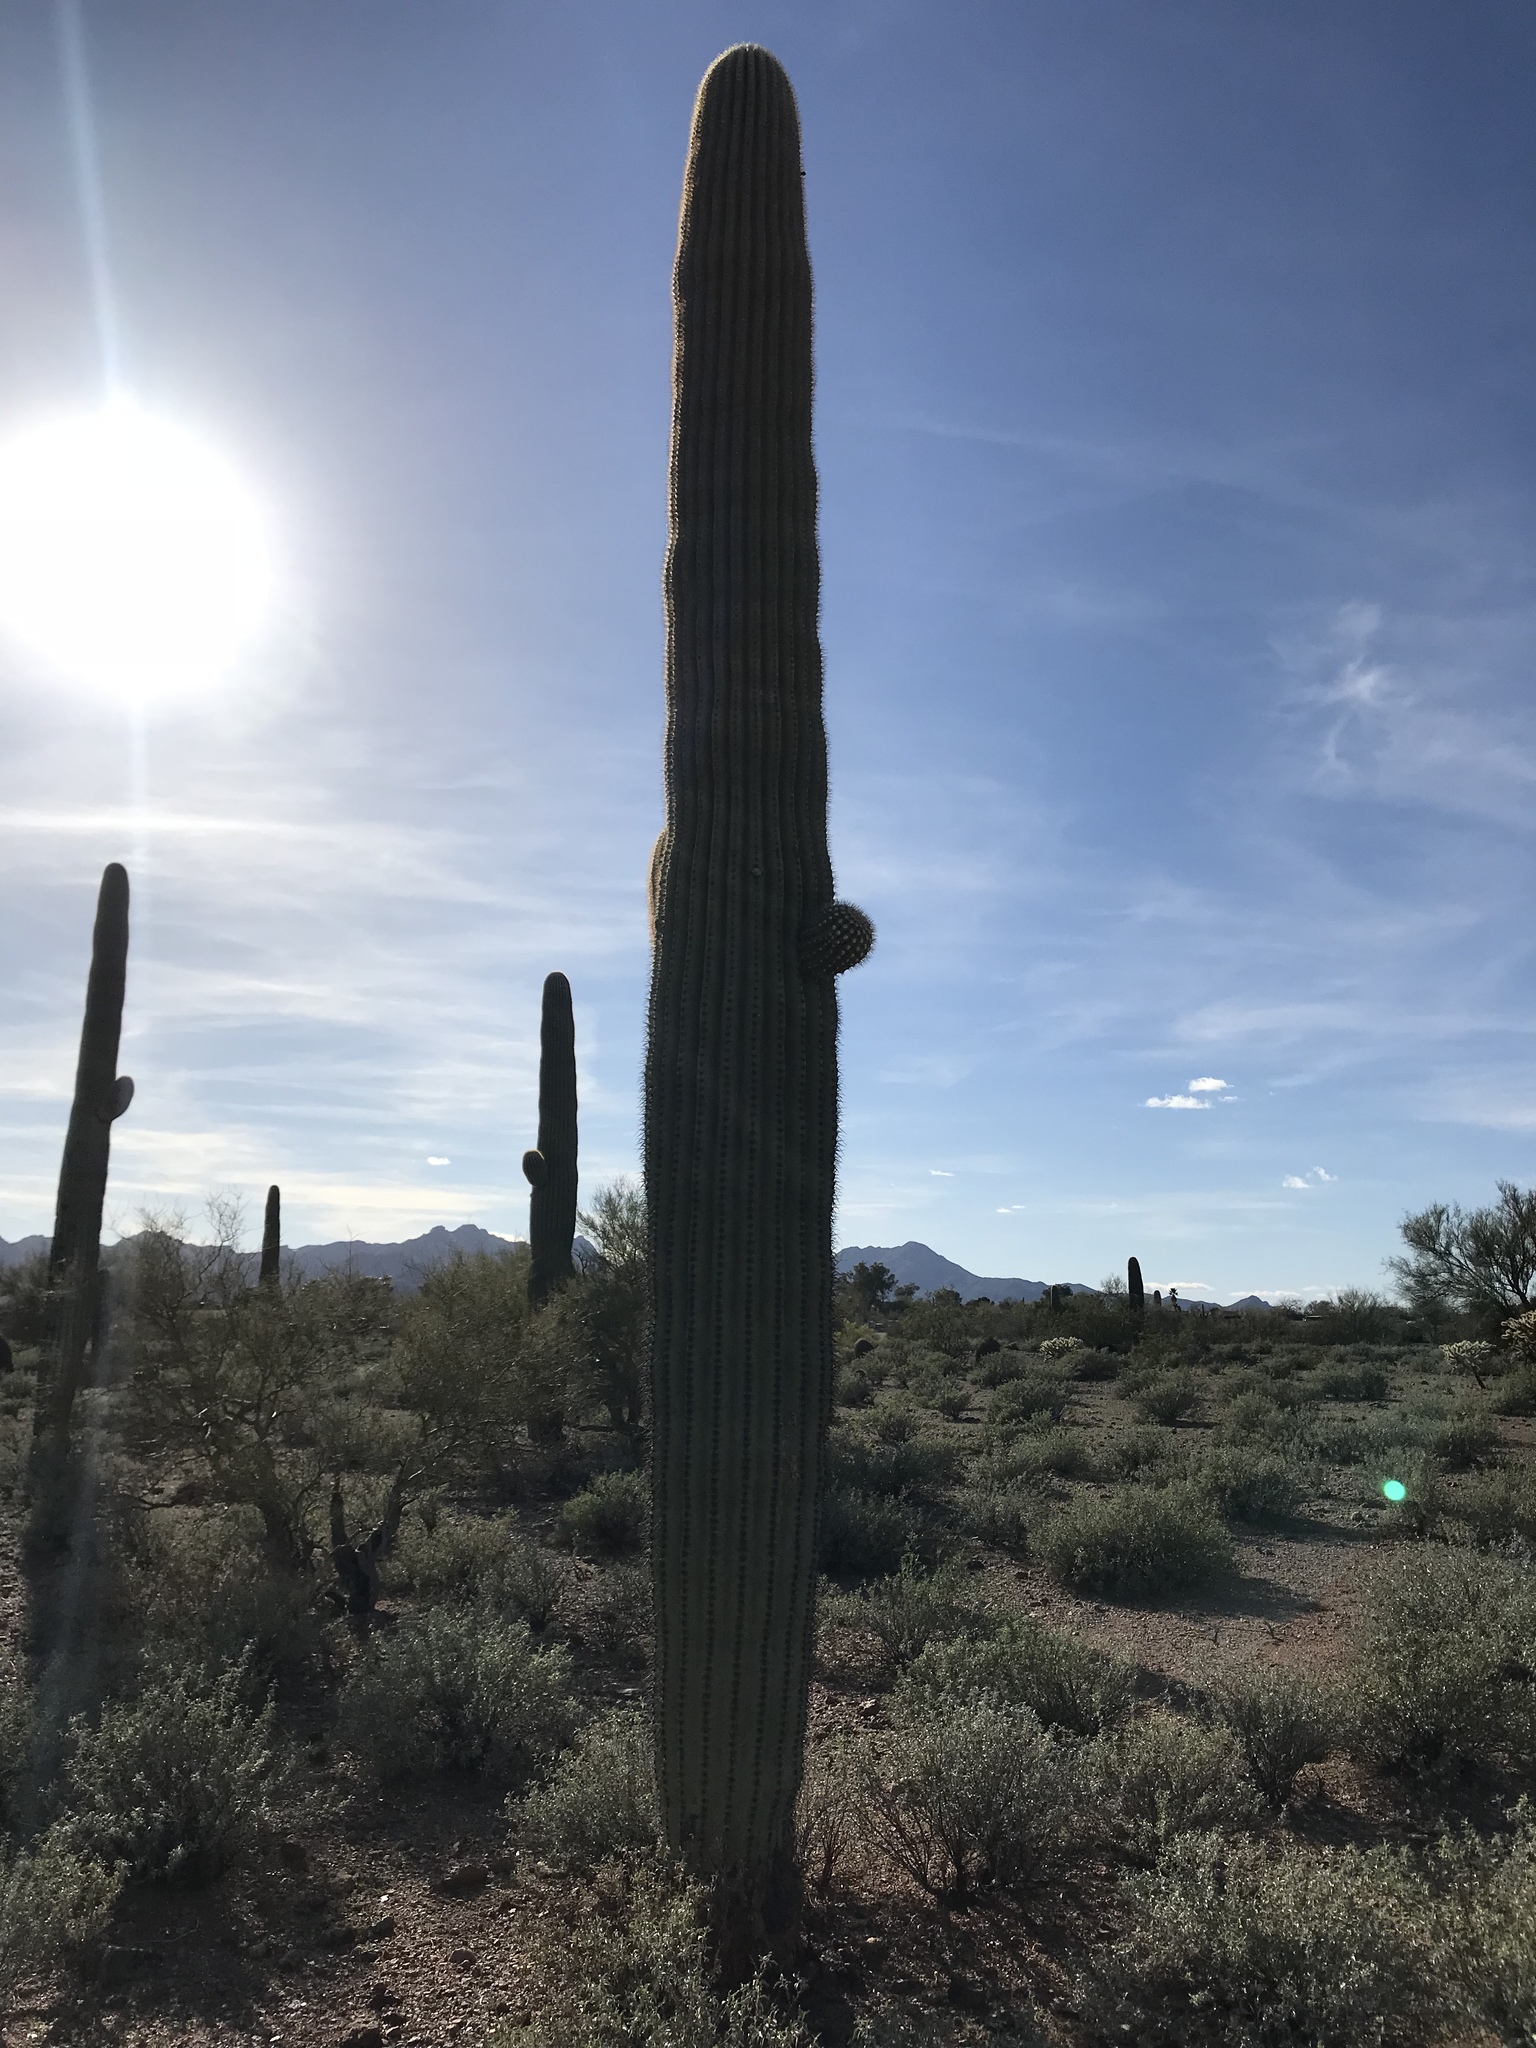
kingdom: Plantae
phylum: Tracheophyta
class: Magnoliopsida
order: Caryophyllales
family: Cactaceae
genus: Carnegiea
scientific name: Carnegiea gigantea
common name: Saguaro
